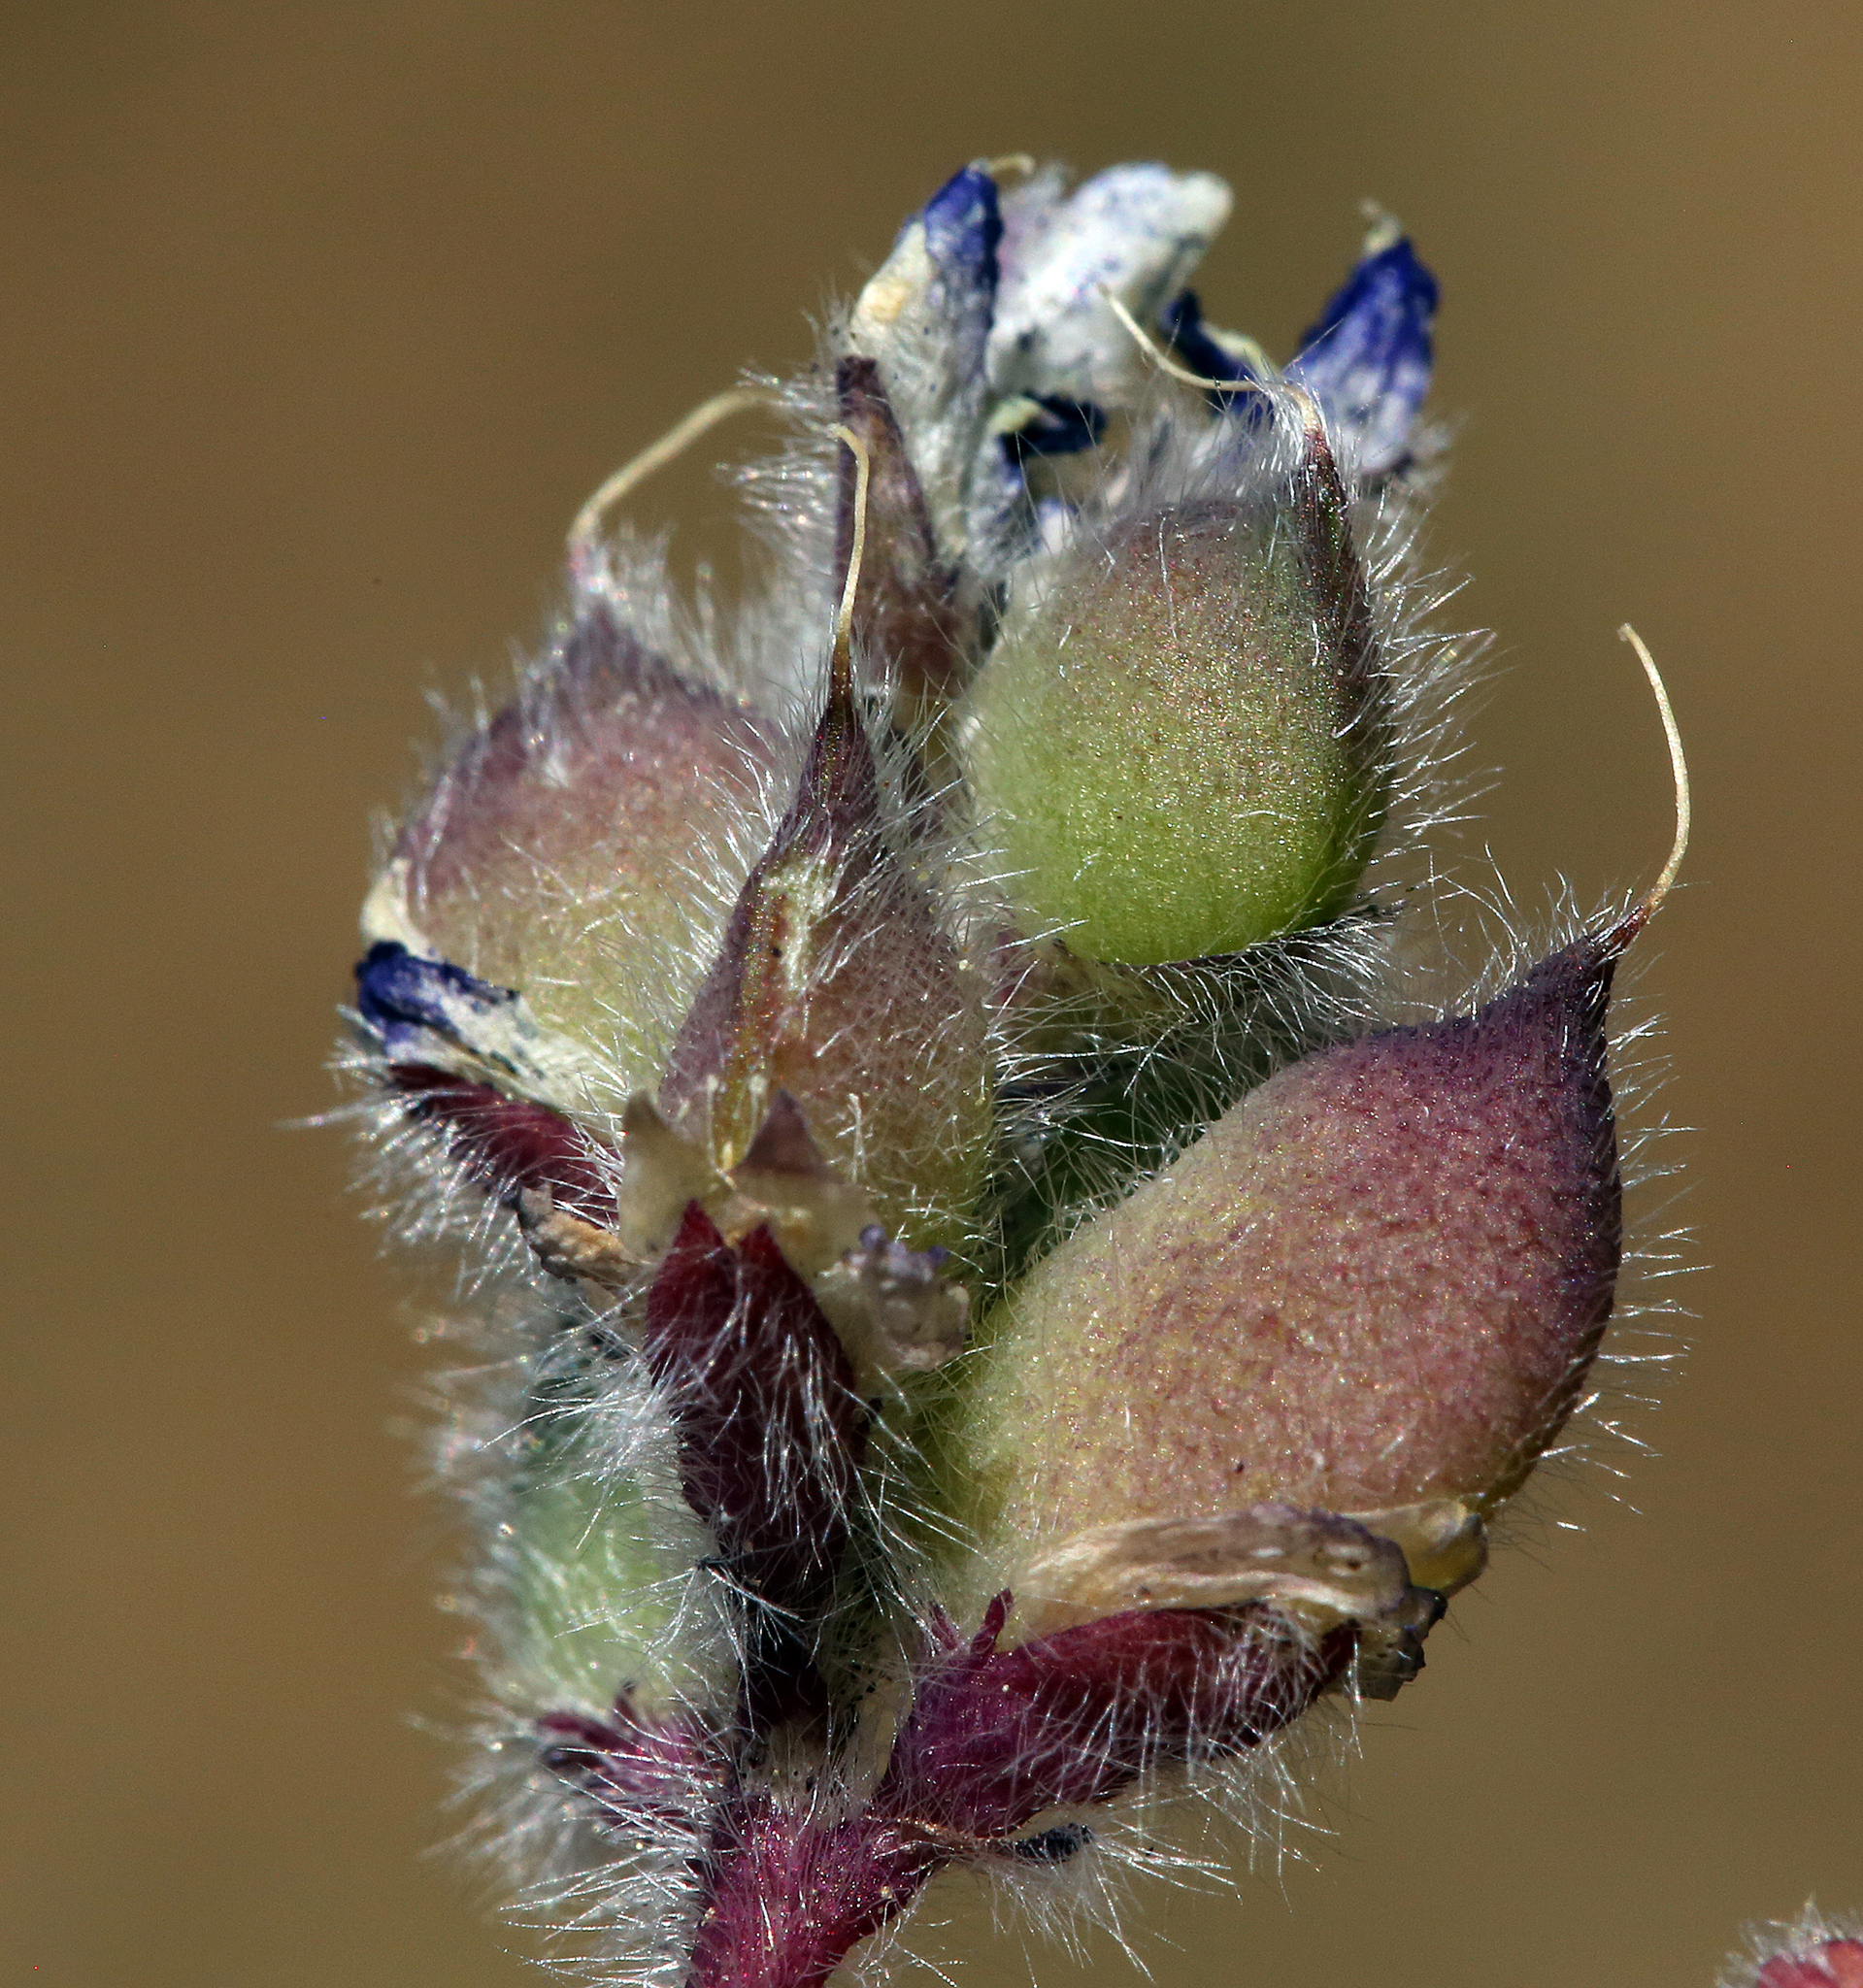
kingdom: Plantae
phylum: Tracheophyta
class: Magnoliopsida
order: Fabales
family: Fabaceae
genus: Lupinus
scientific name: Lupinus brevicaulis
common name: Sand lupine
